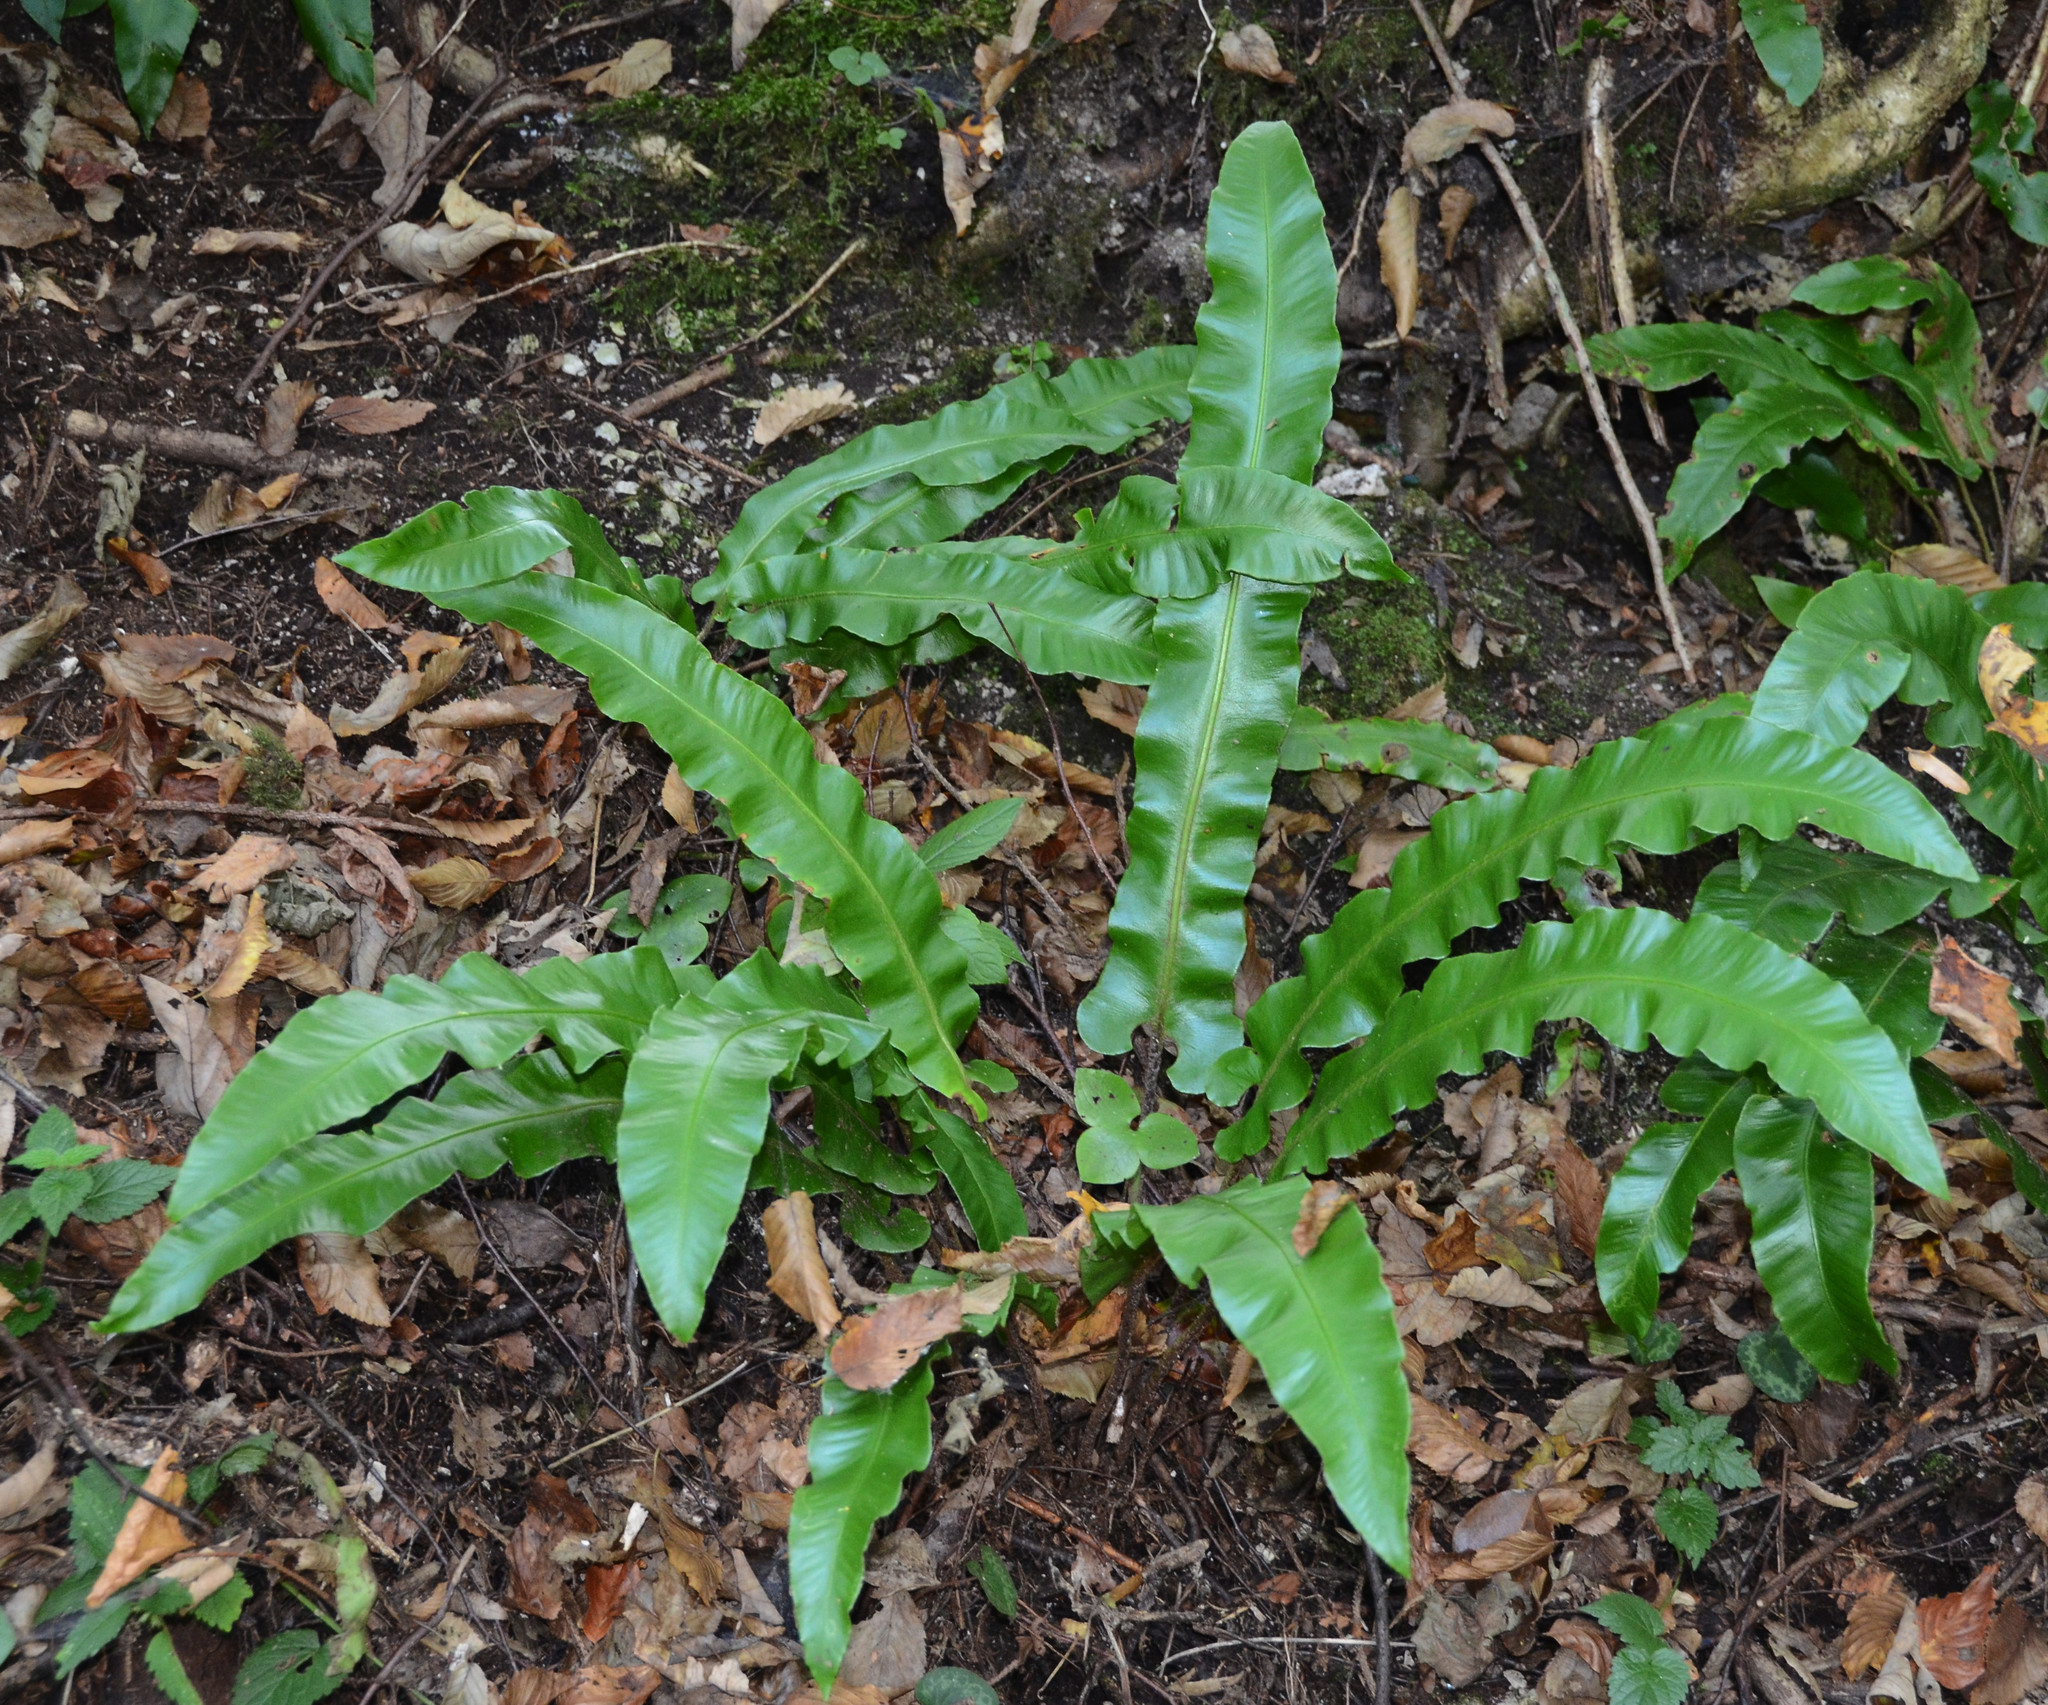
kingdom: Plantae
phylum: Tracheophyta
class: Polypodiopsida
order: Polypodiales
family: Aspleniaceae
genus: Asplenium
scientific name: Asplenium scolopendrium
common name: Hart's-tongue fern
